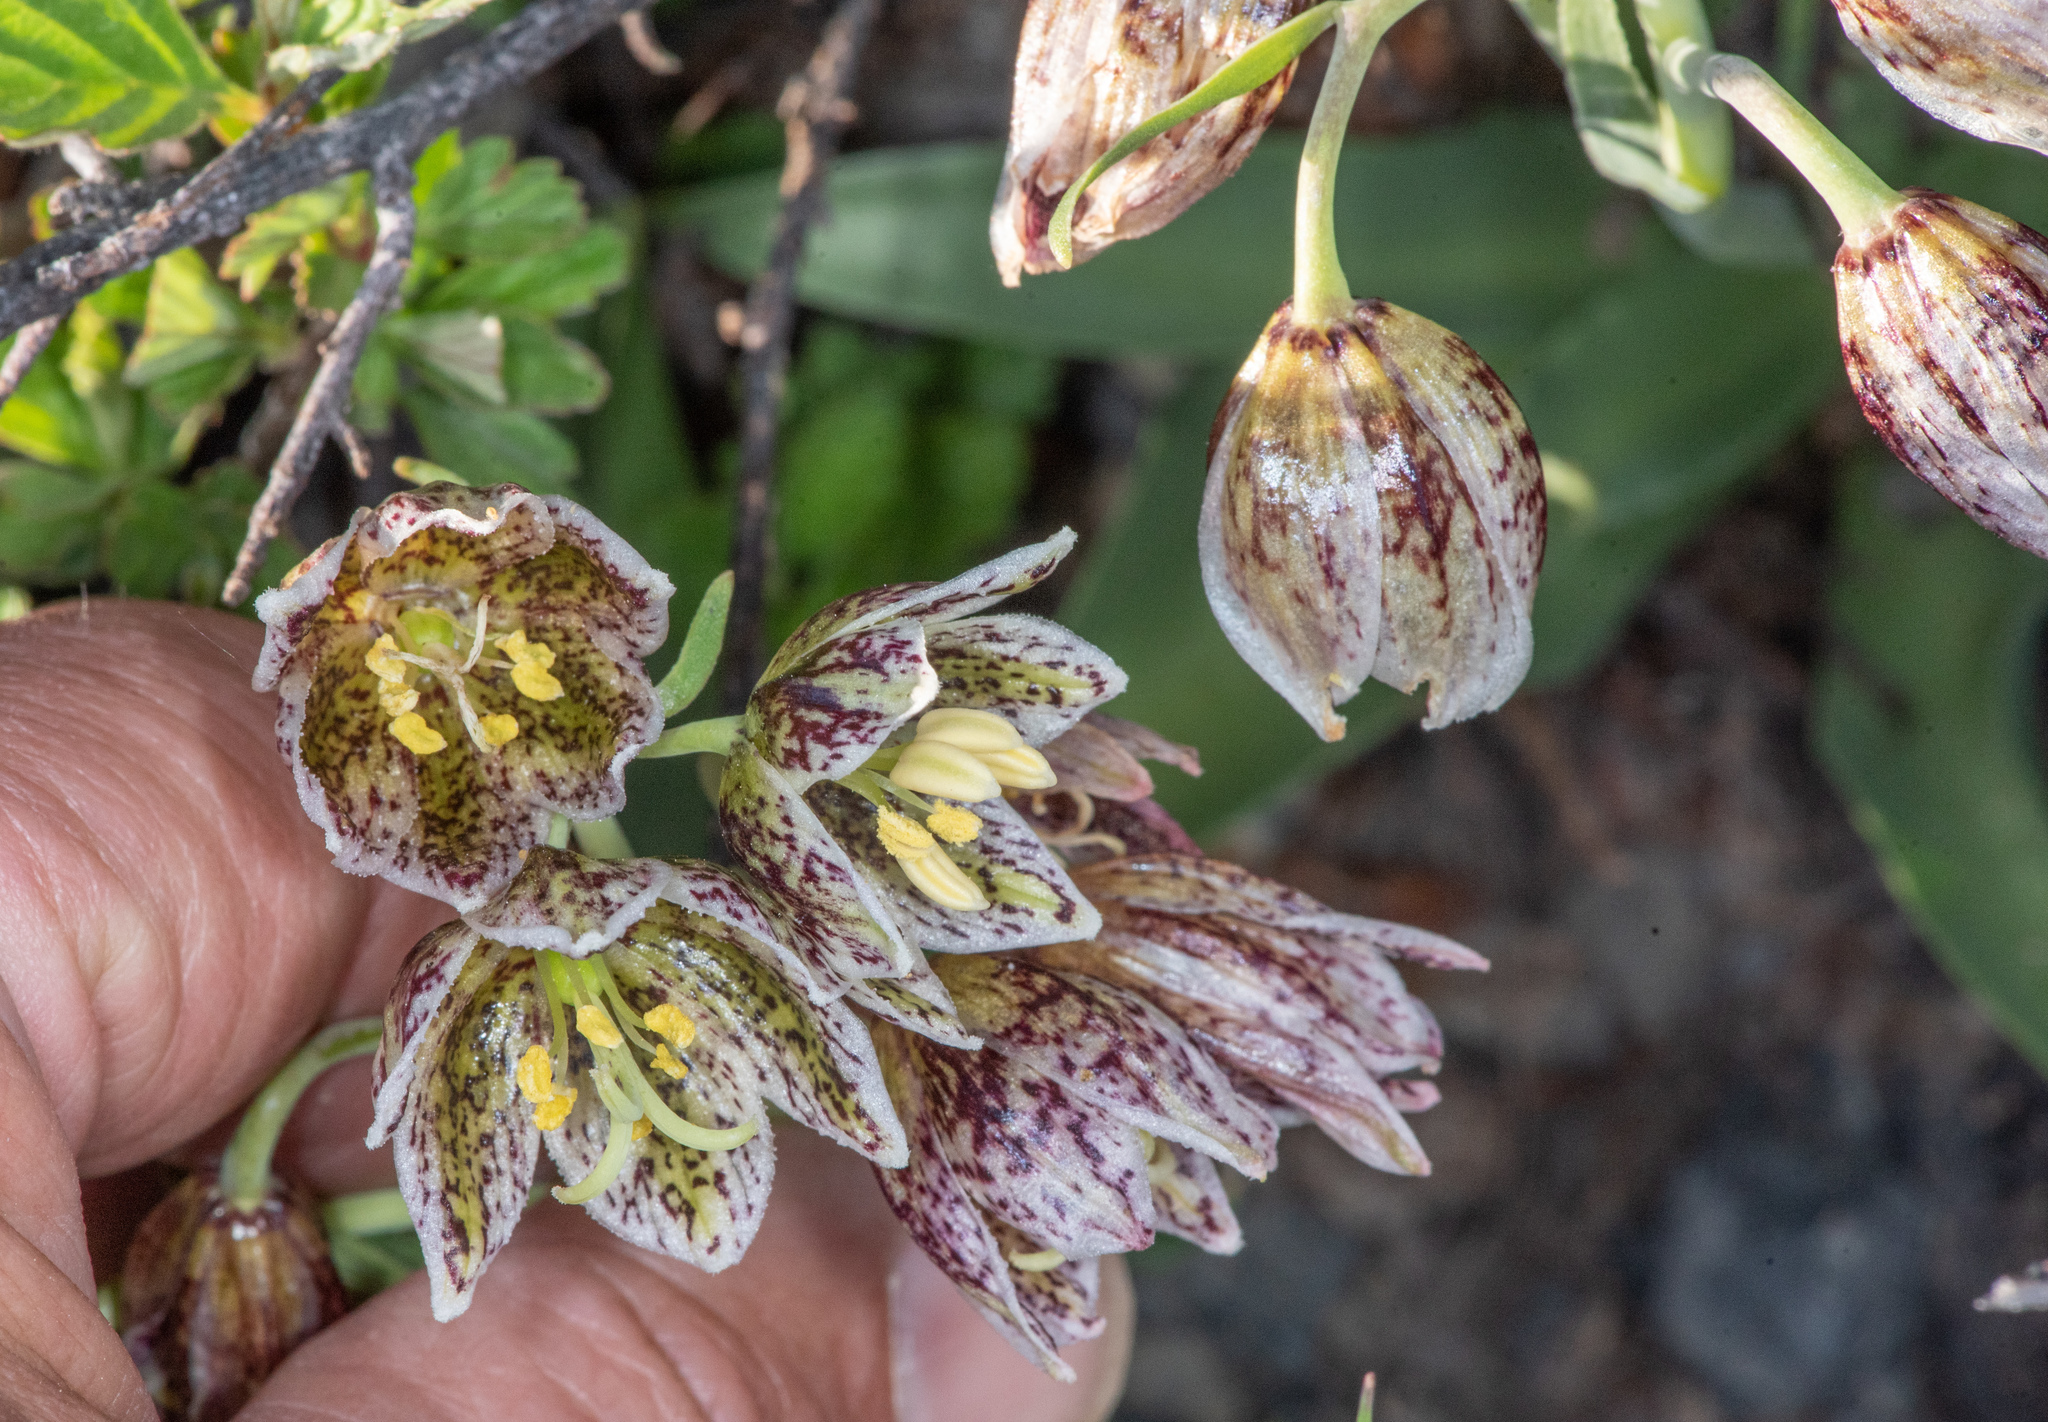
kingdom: Plantae
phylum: Tracheophyta
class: Liliopsida
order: Liliales
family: Liliaceae
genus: Fritillaria
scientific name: Fritillaria purdyi
